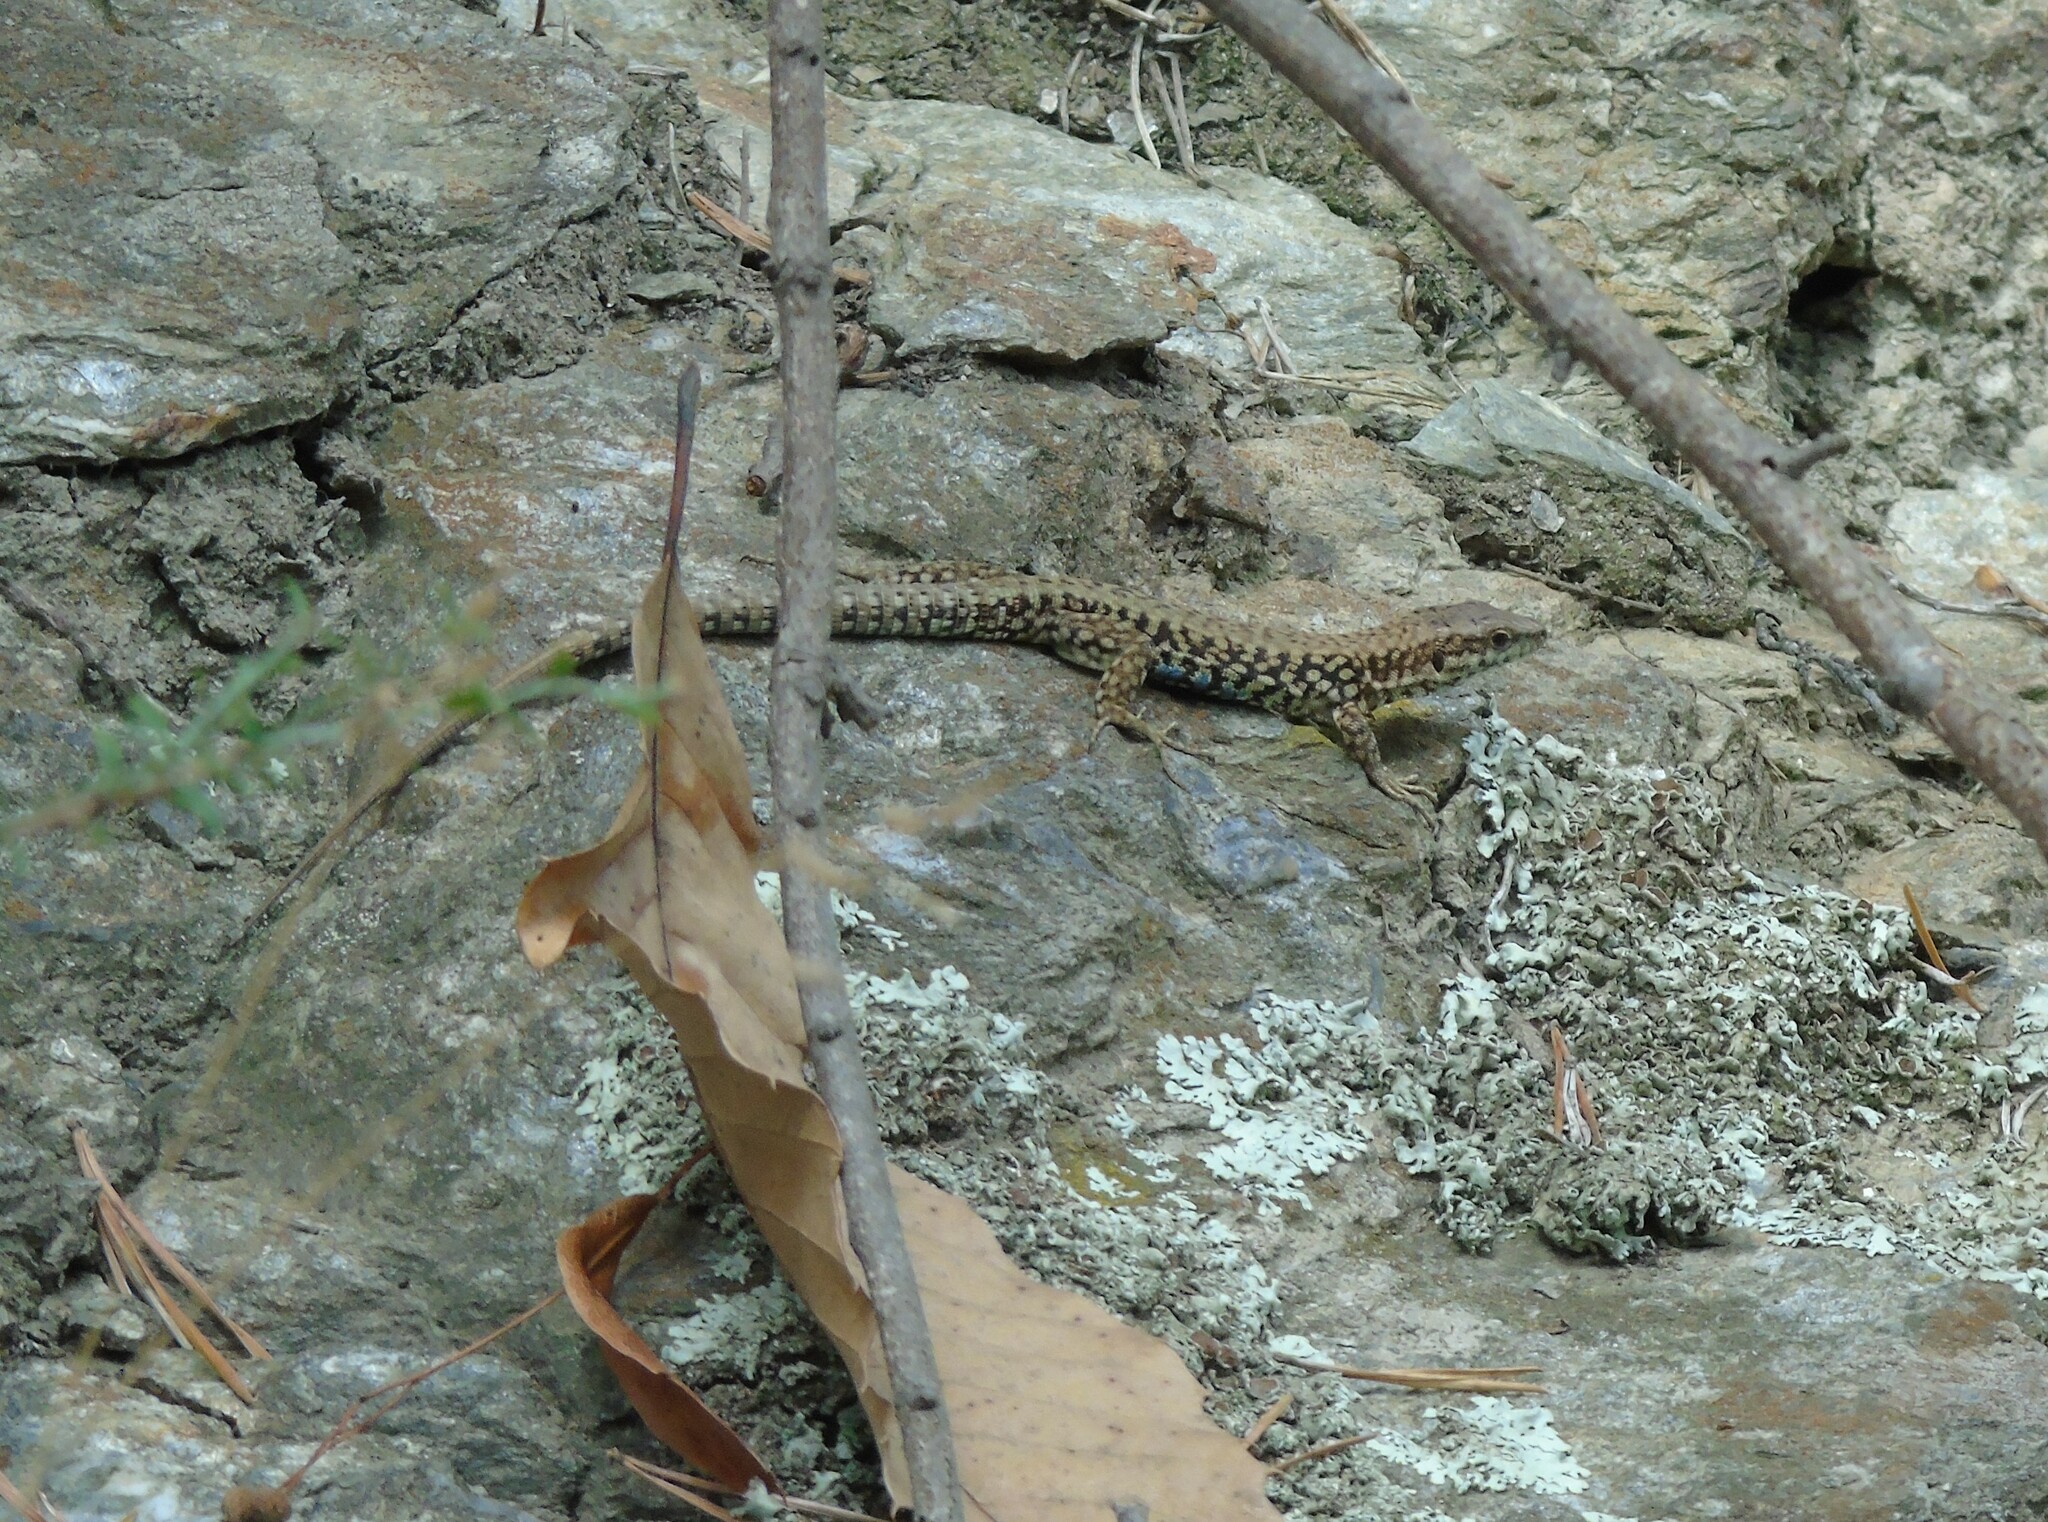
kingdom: Animalia
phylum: Chordata
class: Squamata
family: Lacertidae
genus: Podarcis
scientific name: Podarcis muralis
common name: Common wall lizard
